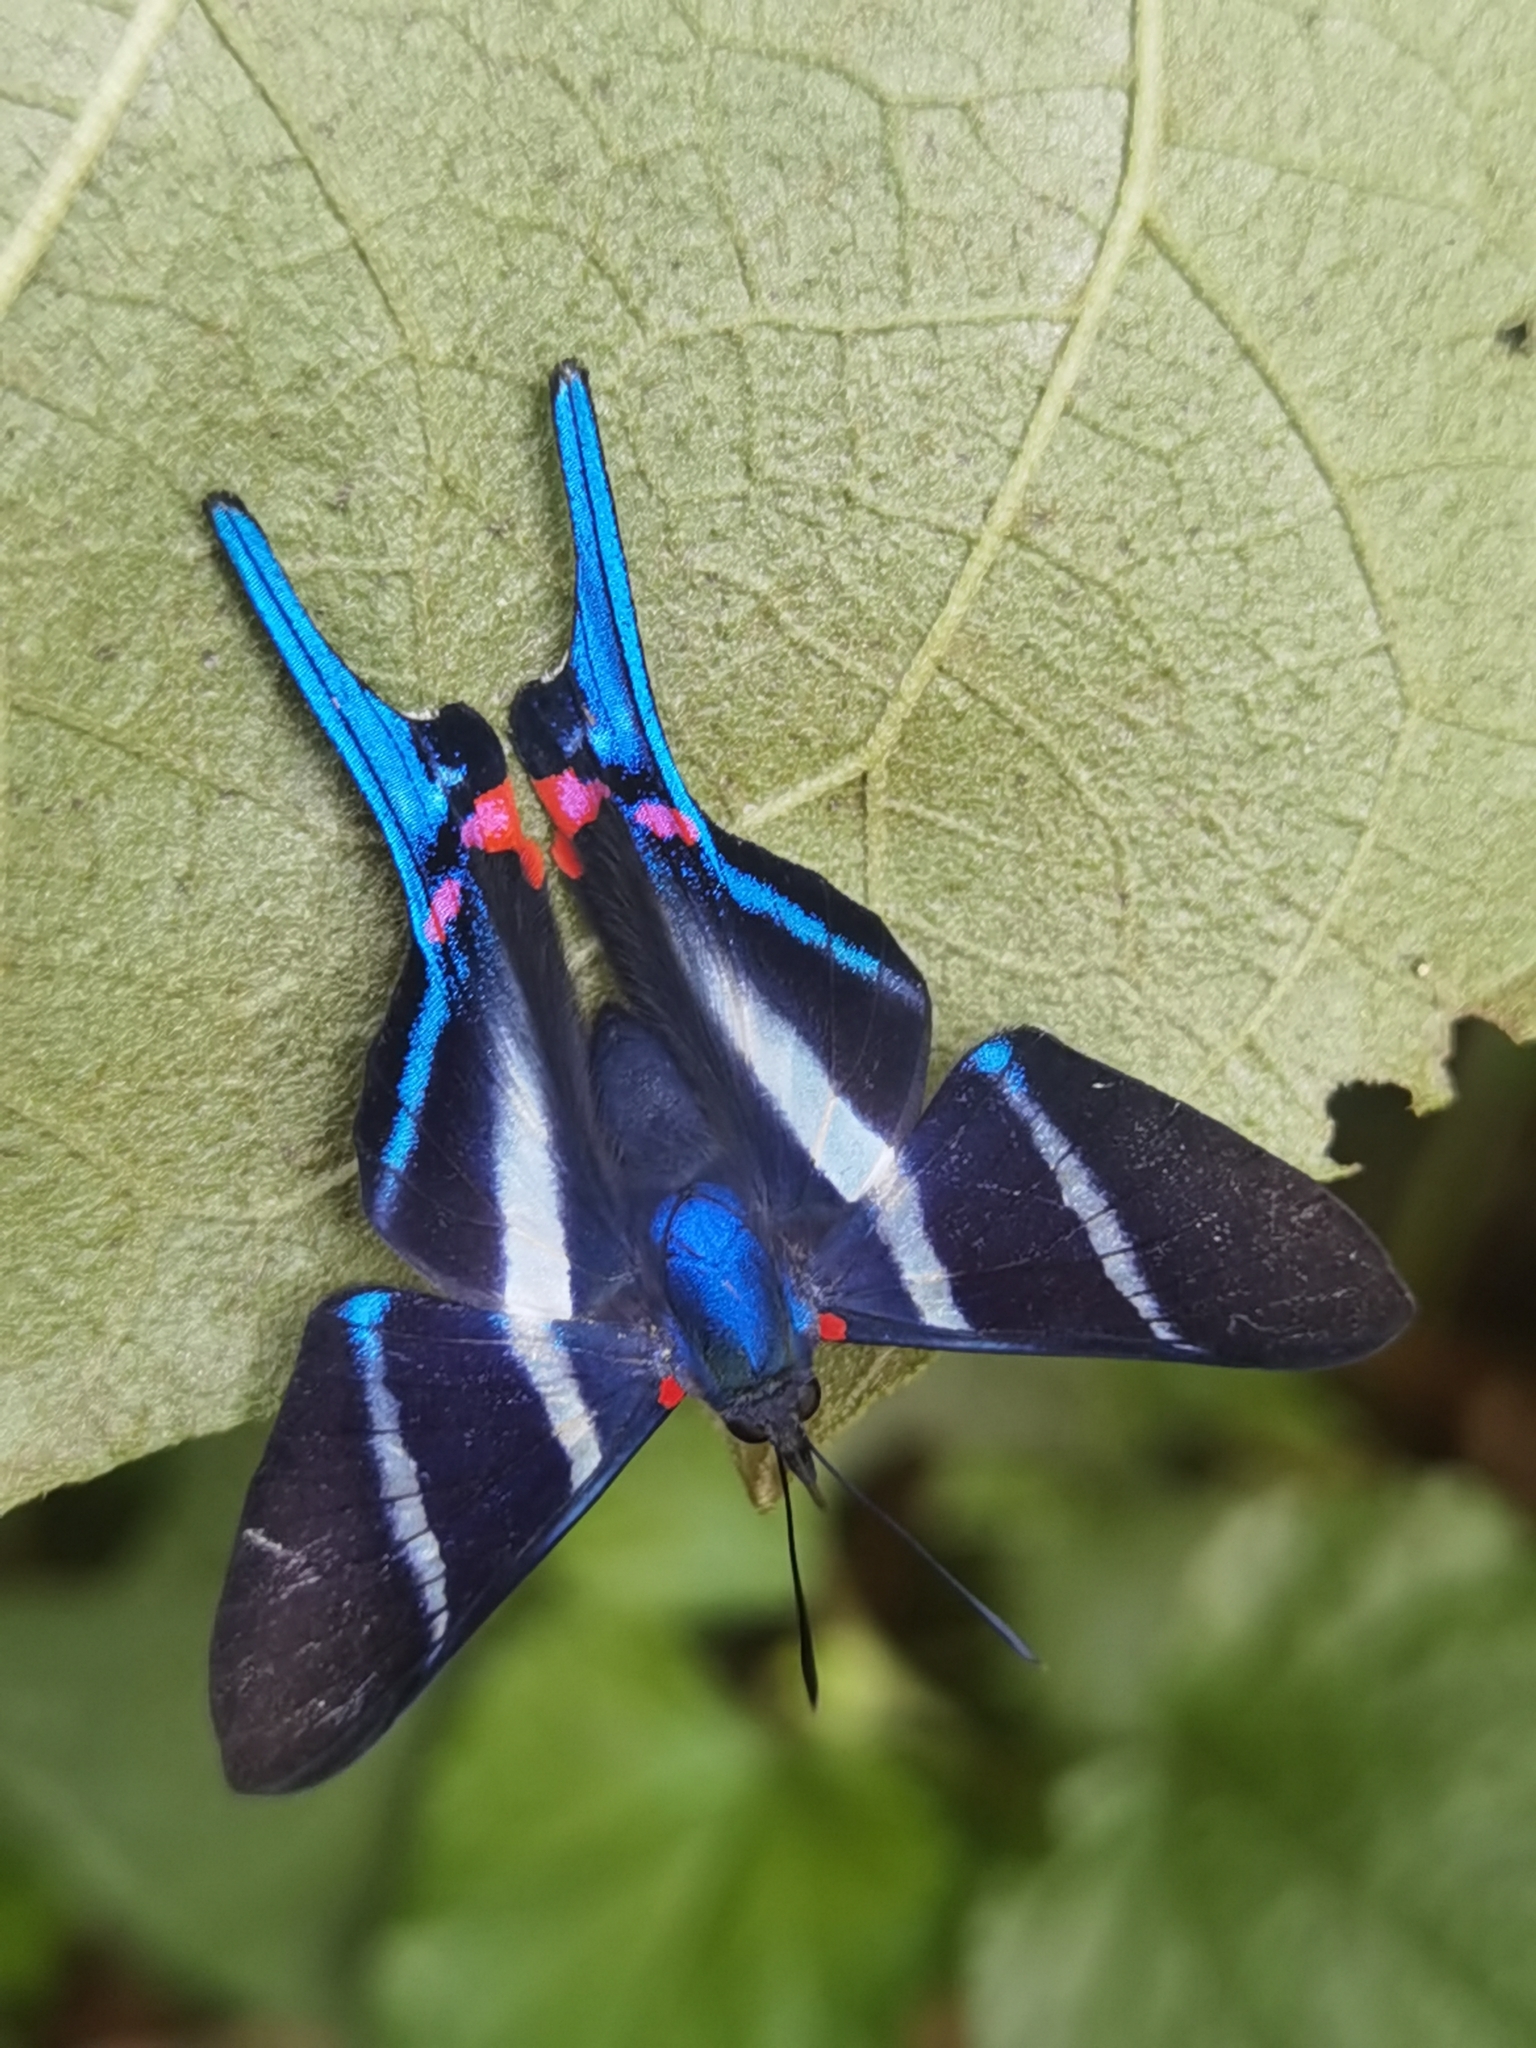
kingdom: Animalia
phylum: Arthropoda
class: Insecta
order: Lepidoptera
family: Riodinidae
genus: Rhetus
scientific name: Rhetus arcius
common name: Long-tailed metalmark
